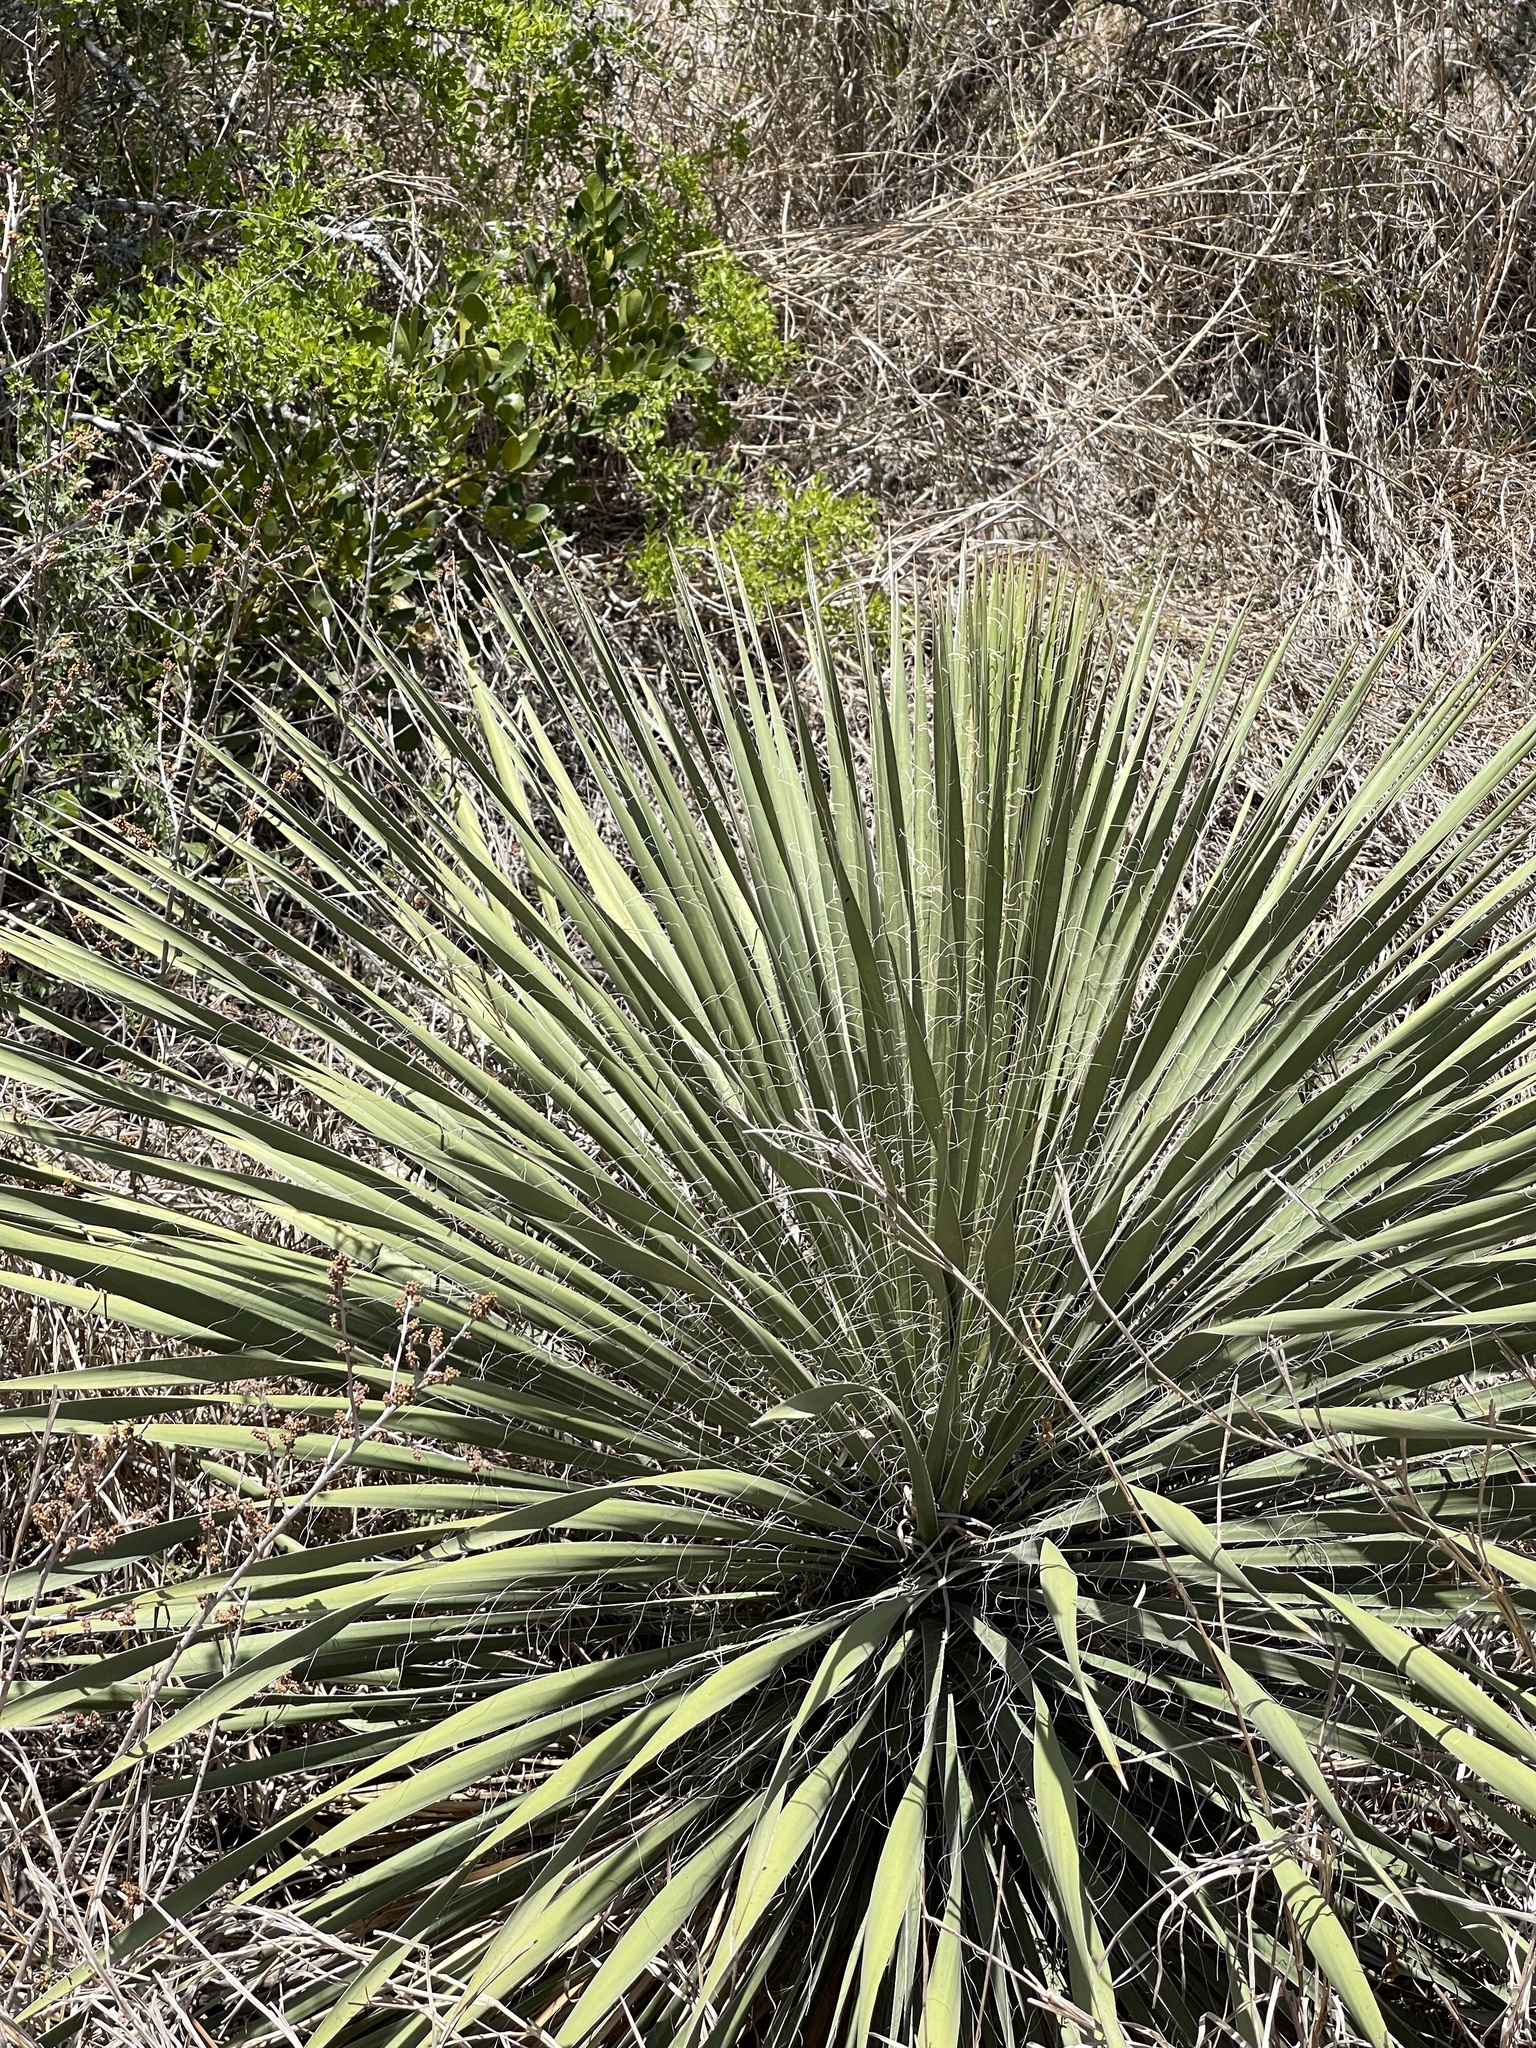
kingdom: Plantae
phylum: Tracheophyta
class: Liliopsida
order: Asparagales
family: Asparagaceae
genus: Yucca
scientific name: Yucca constricta
